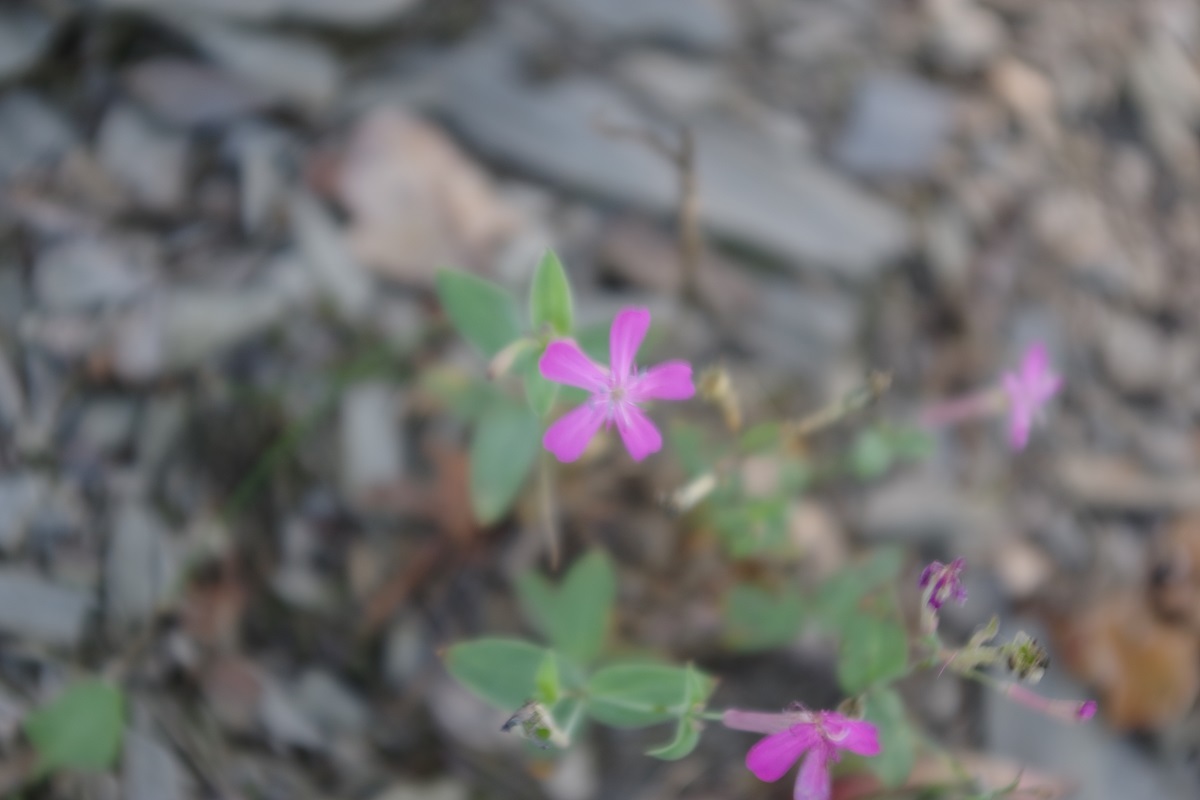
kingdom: Plantae
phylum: Tracheophyta
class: Magnoliopsida
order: Caryophyllales
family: Caryophyllaceae
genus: Atocion
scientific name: Atocion armeria
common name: Sweet william catchfly
